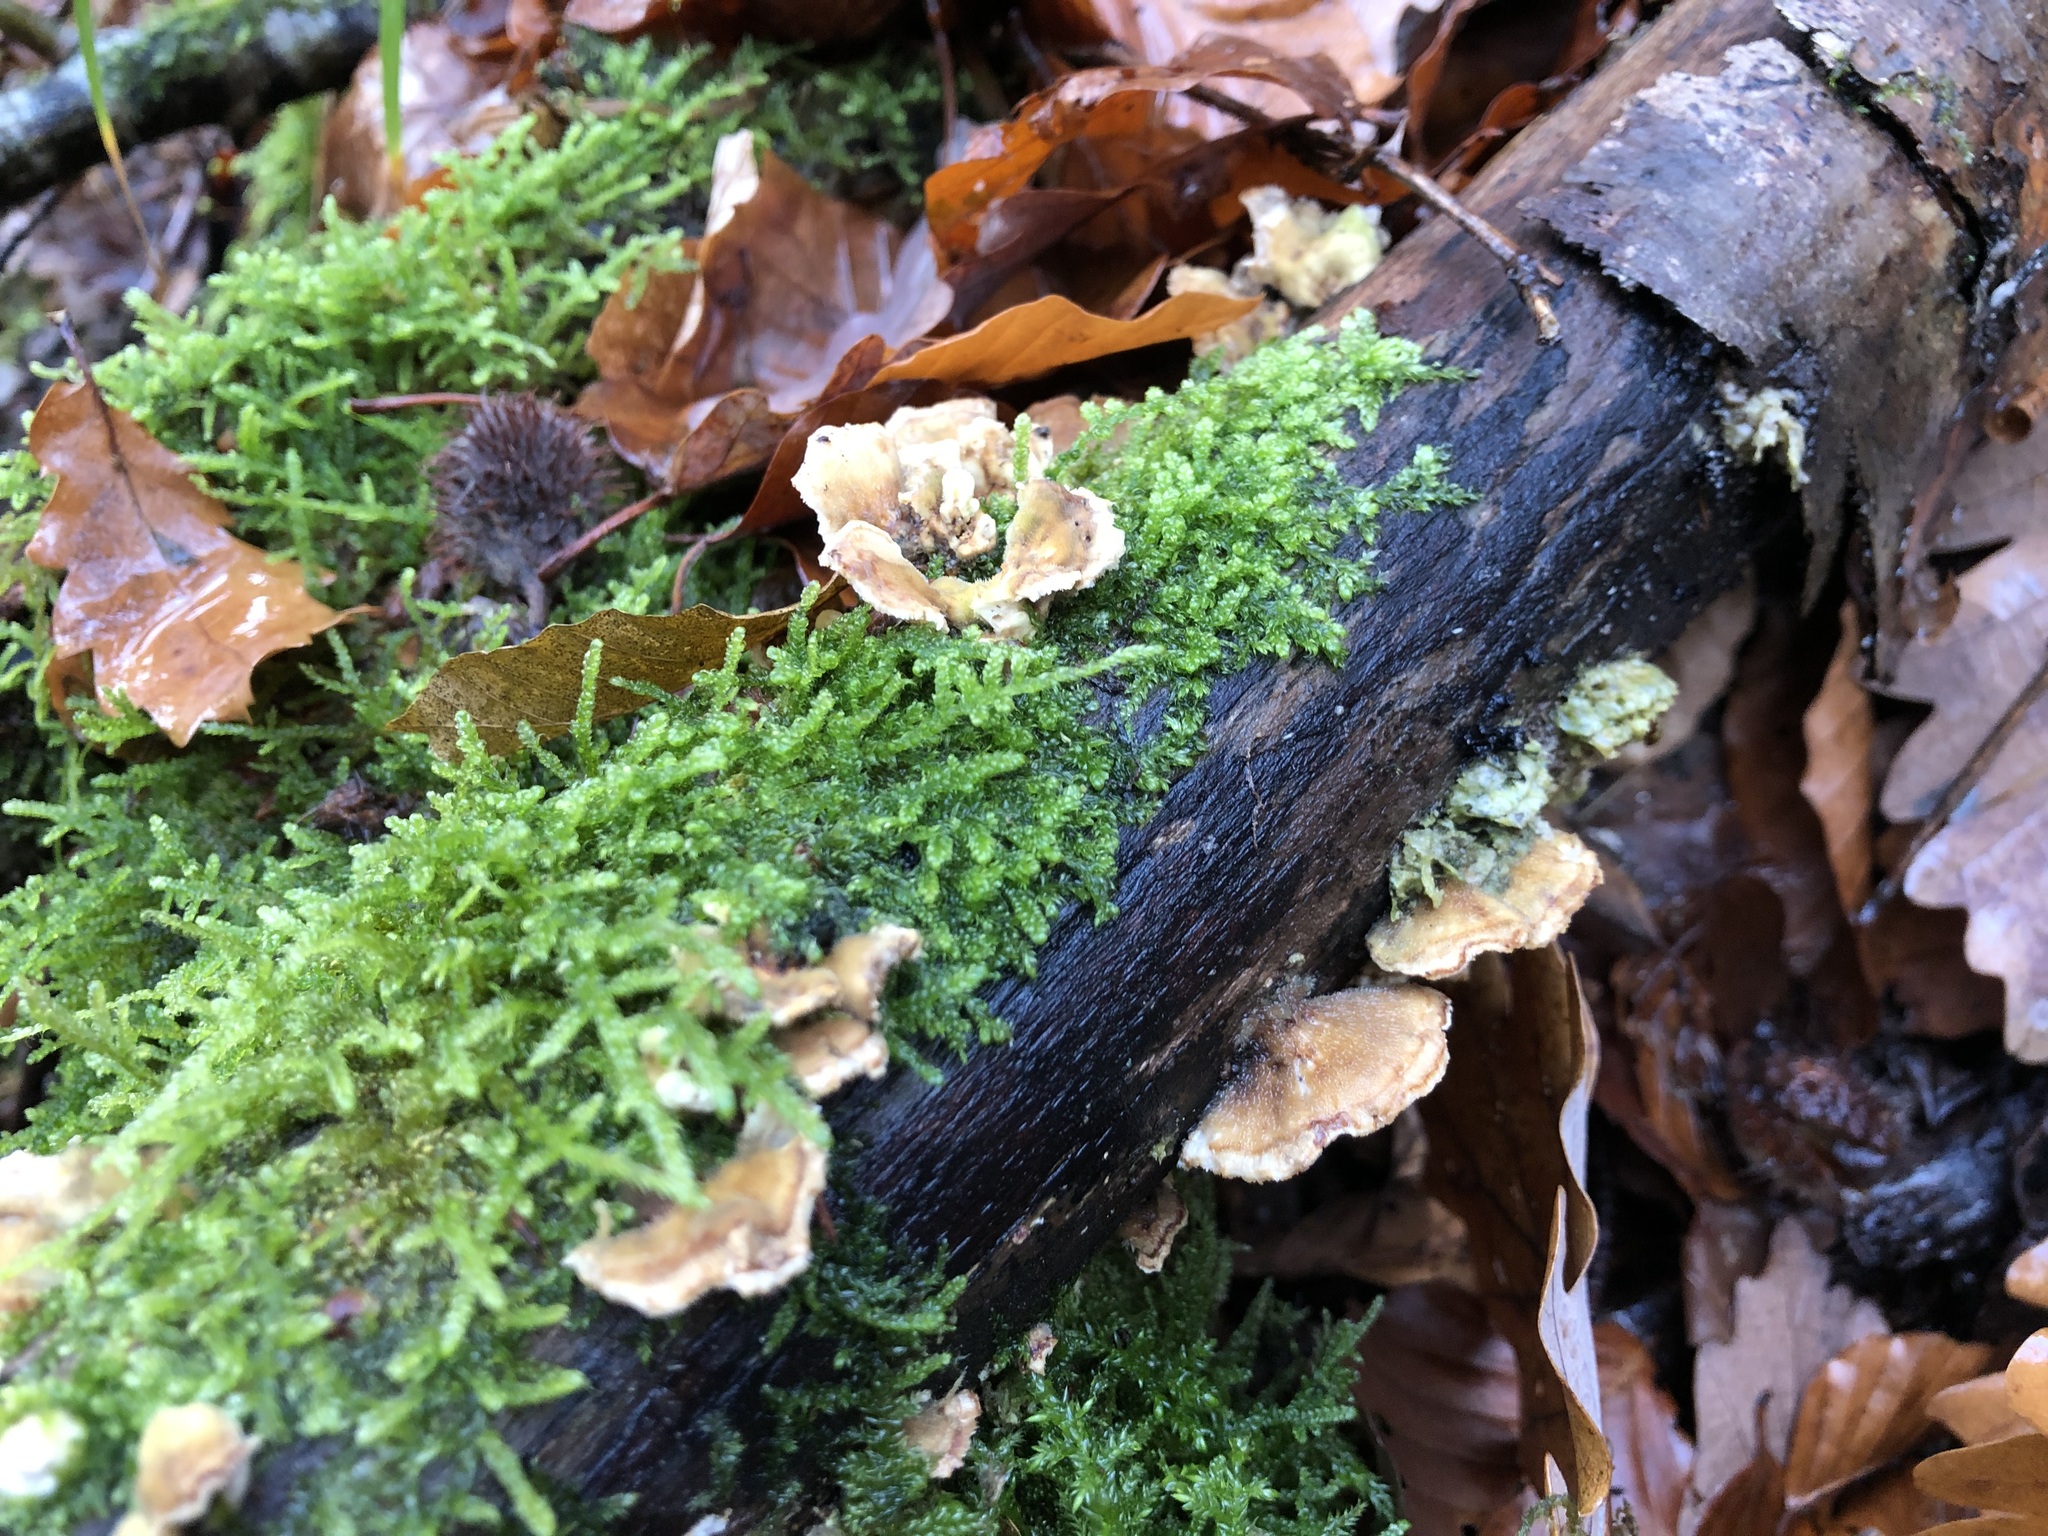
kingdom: Fungi
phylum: Basidiomycota
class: Agaricomycetes
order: Polyporales
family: Polyporaceae
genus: Trametes
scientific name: Trametes versicolor
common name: Turkeytail
